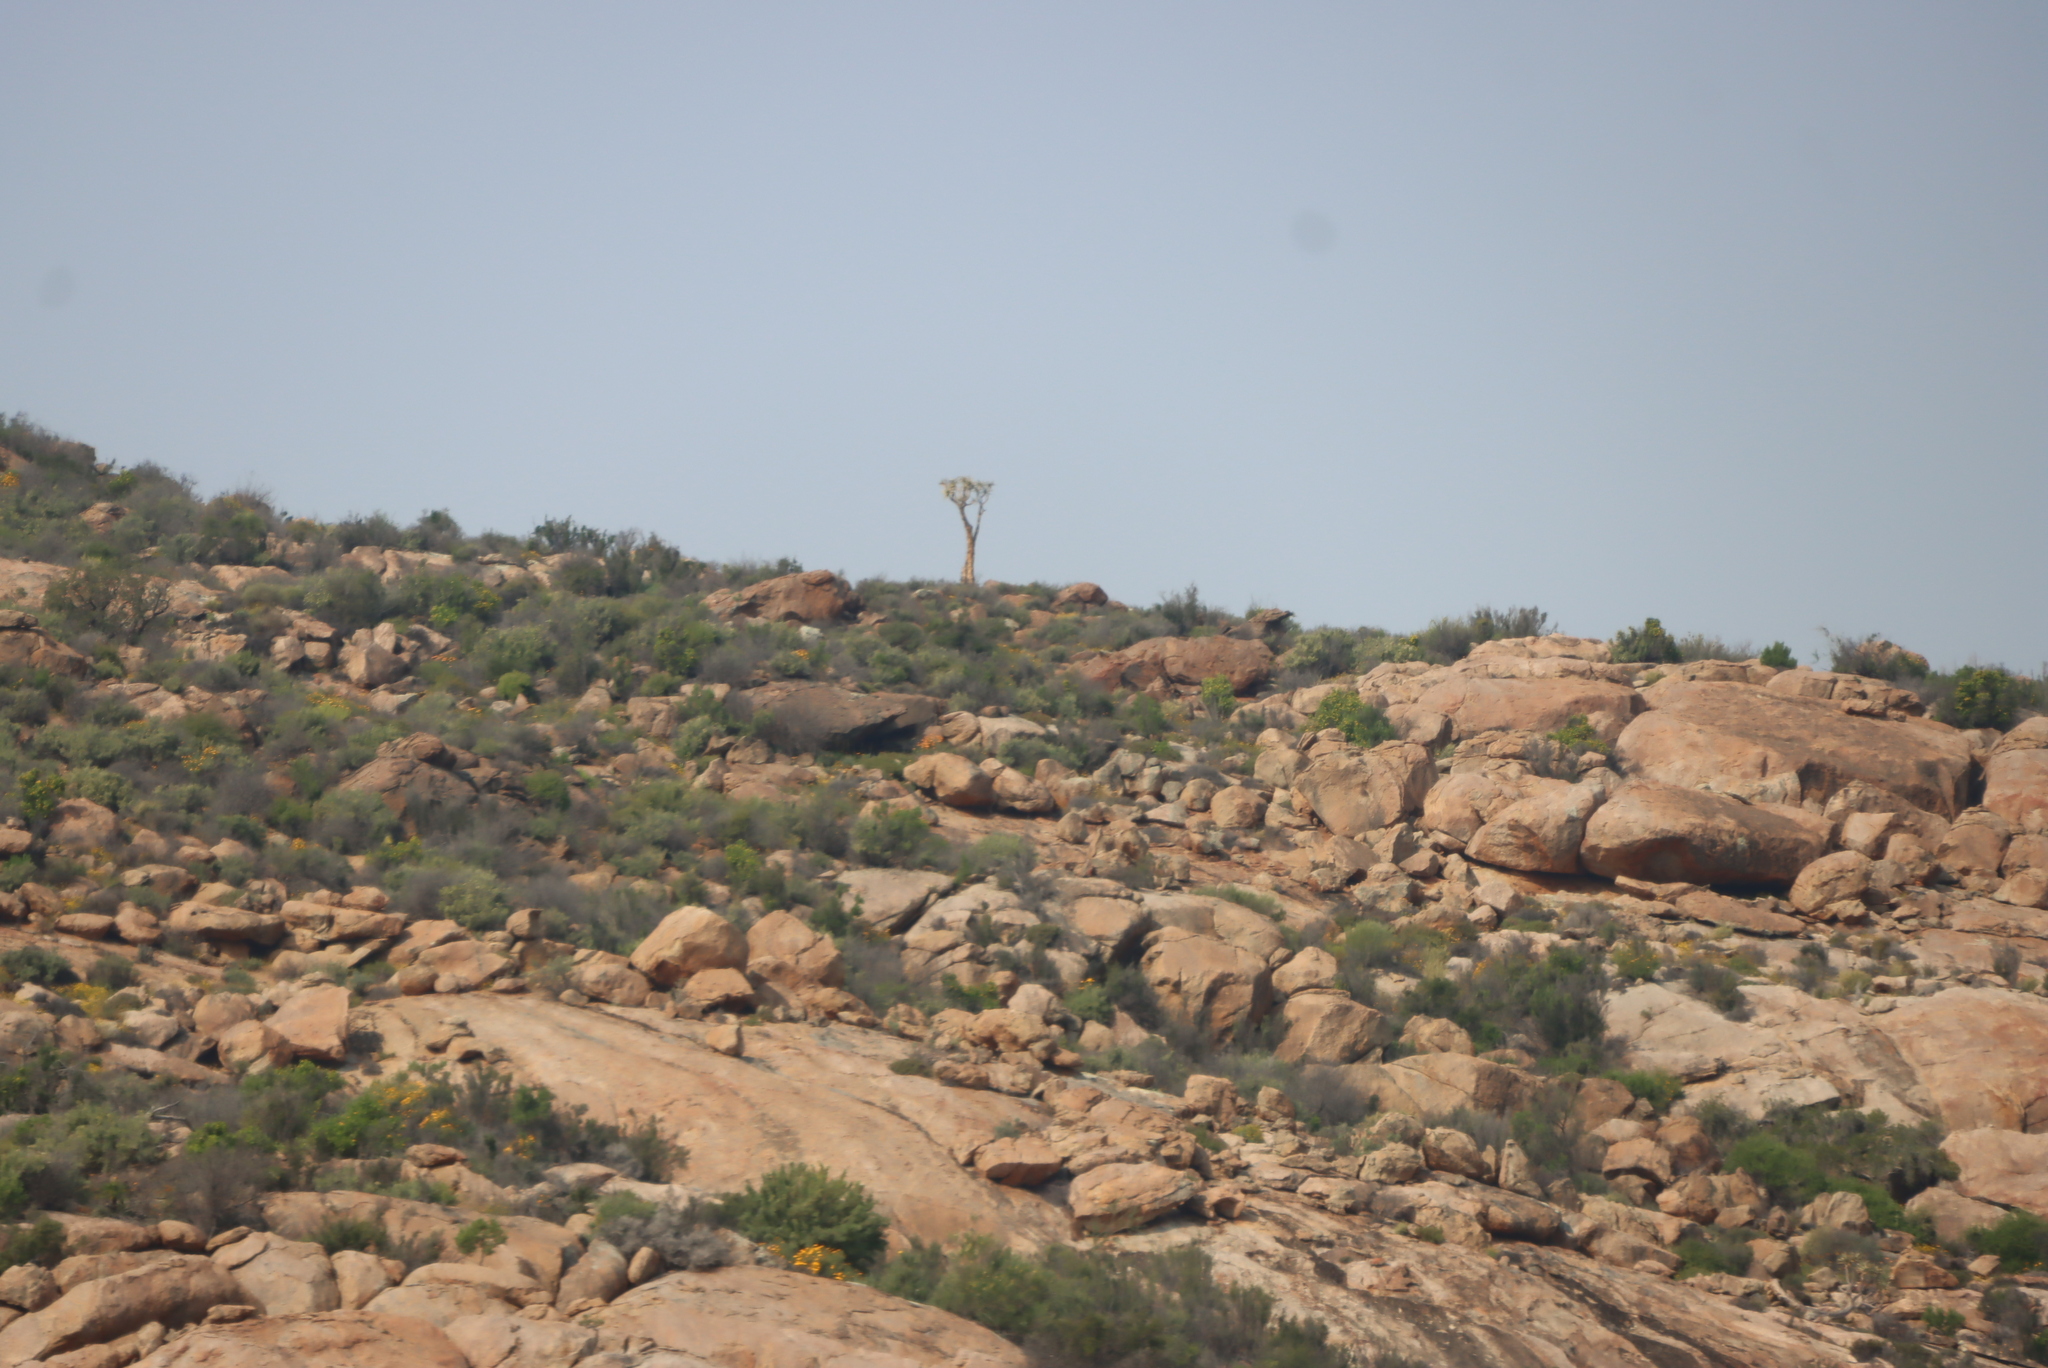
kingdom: Plantae
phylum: Tracheophyta
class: Liliopsida
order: Asparagales
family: Asphodelaceae
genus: Aloidendron
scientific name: Aloidendron dichotomum
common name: Quiver tree
